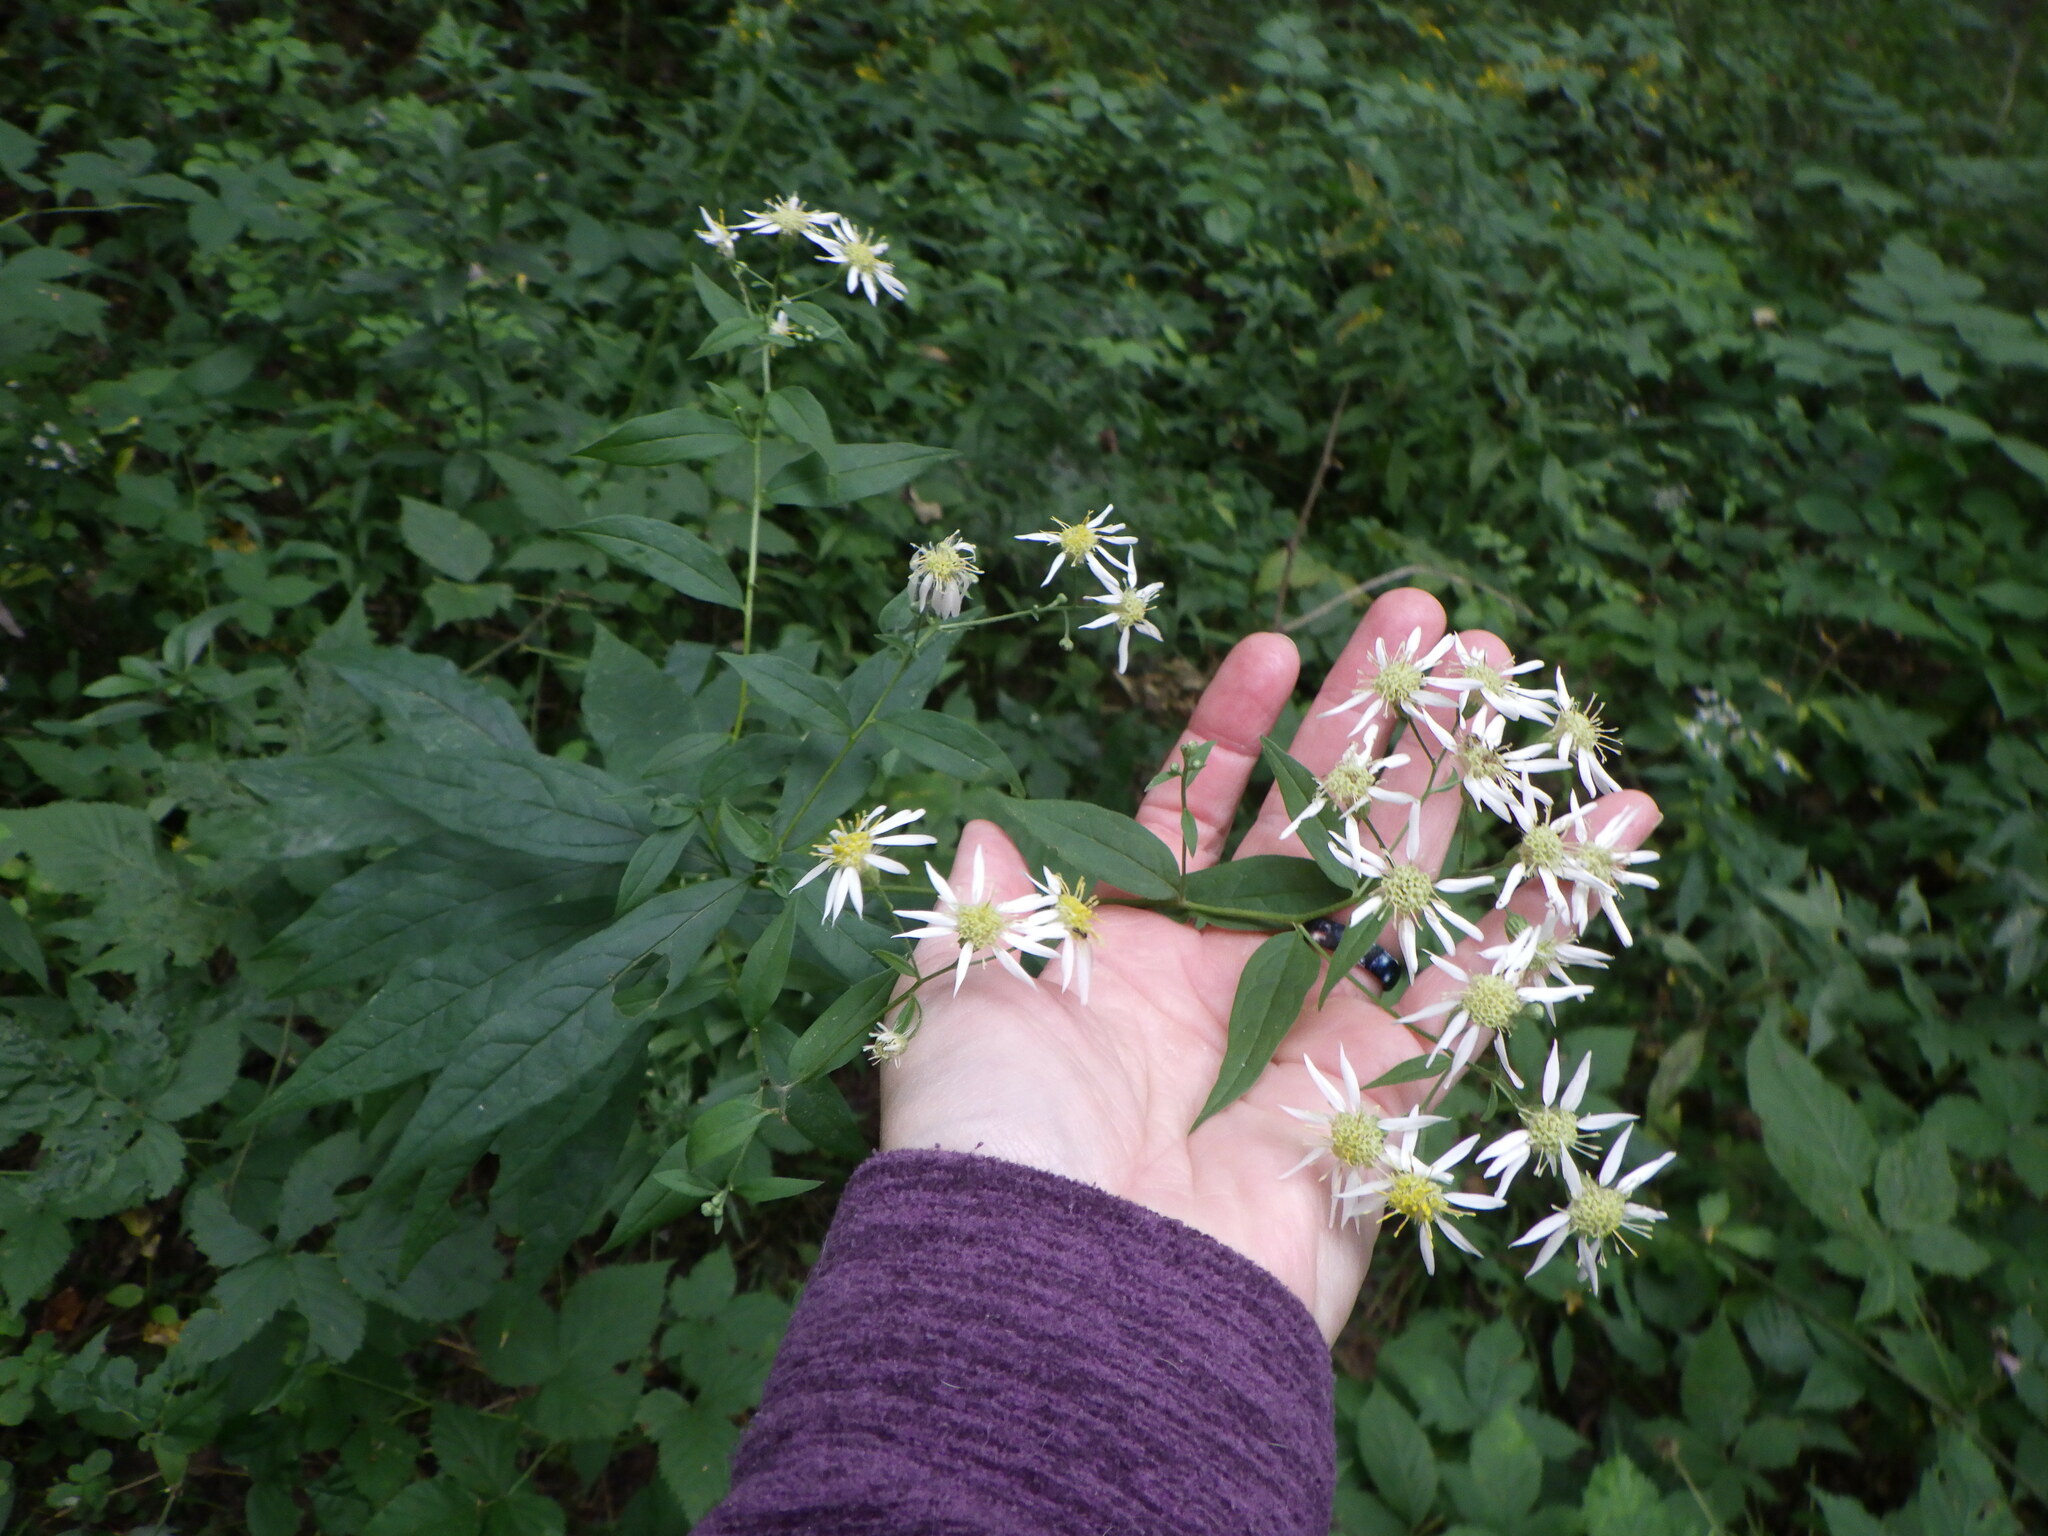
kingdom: Plantae
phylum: Tracheophyta
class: Magnoliopsida
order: Asterales
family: Asteraceae
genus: Doellingeria
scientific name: Doellingeria umbellata
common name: Flat-top white aster
